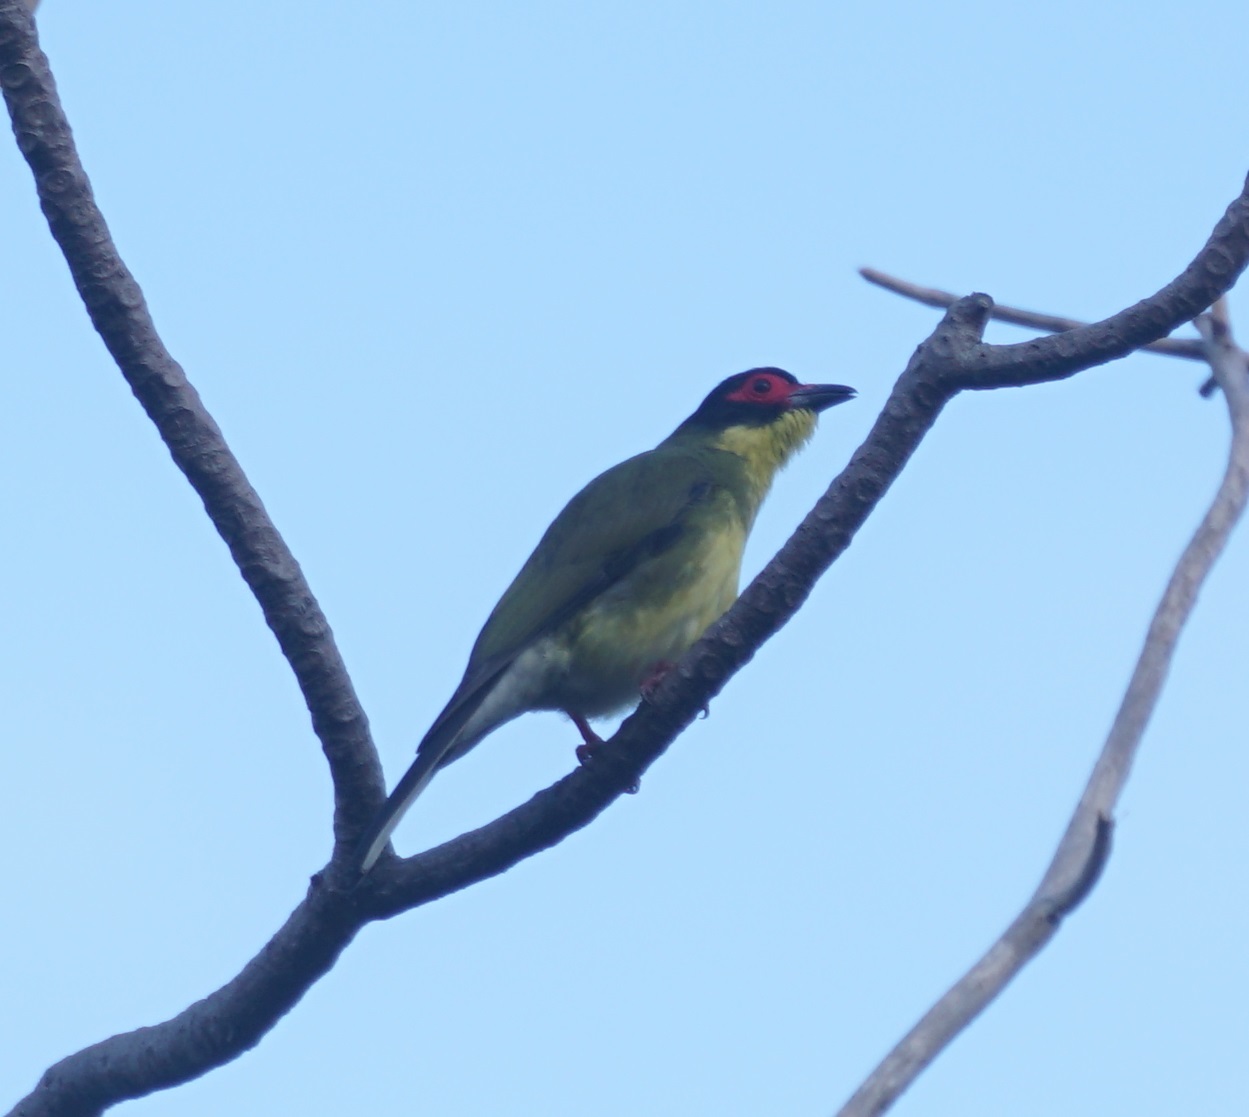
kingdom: Animalia
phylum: Chordata
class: Aves
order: Passeriformes
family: Oriolidae
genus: Sphecotheres
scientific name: Sphecotheres vieilloti
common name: Australasian figbird
